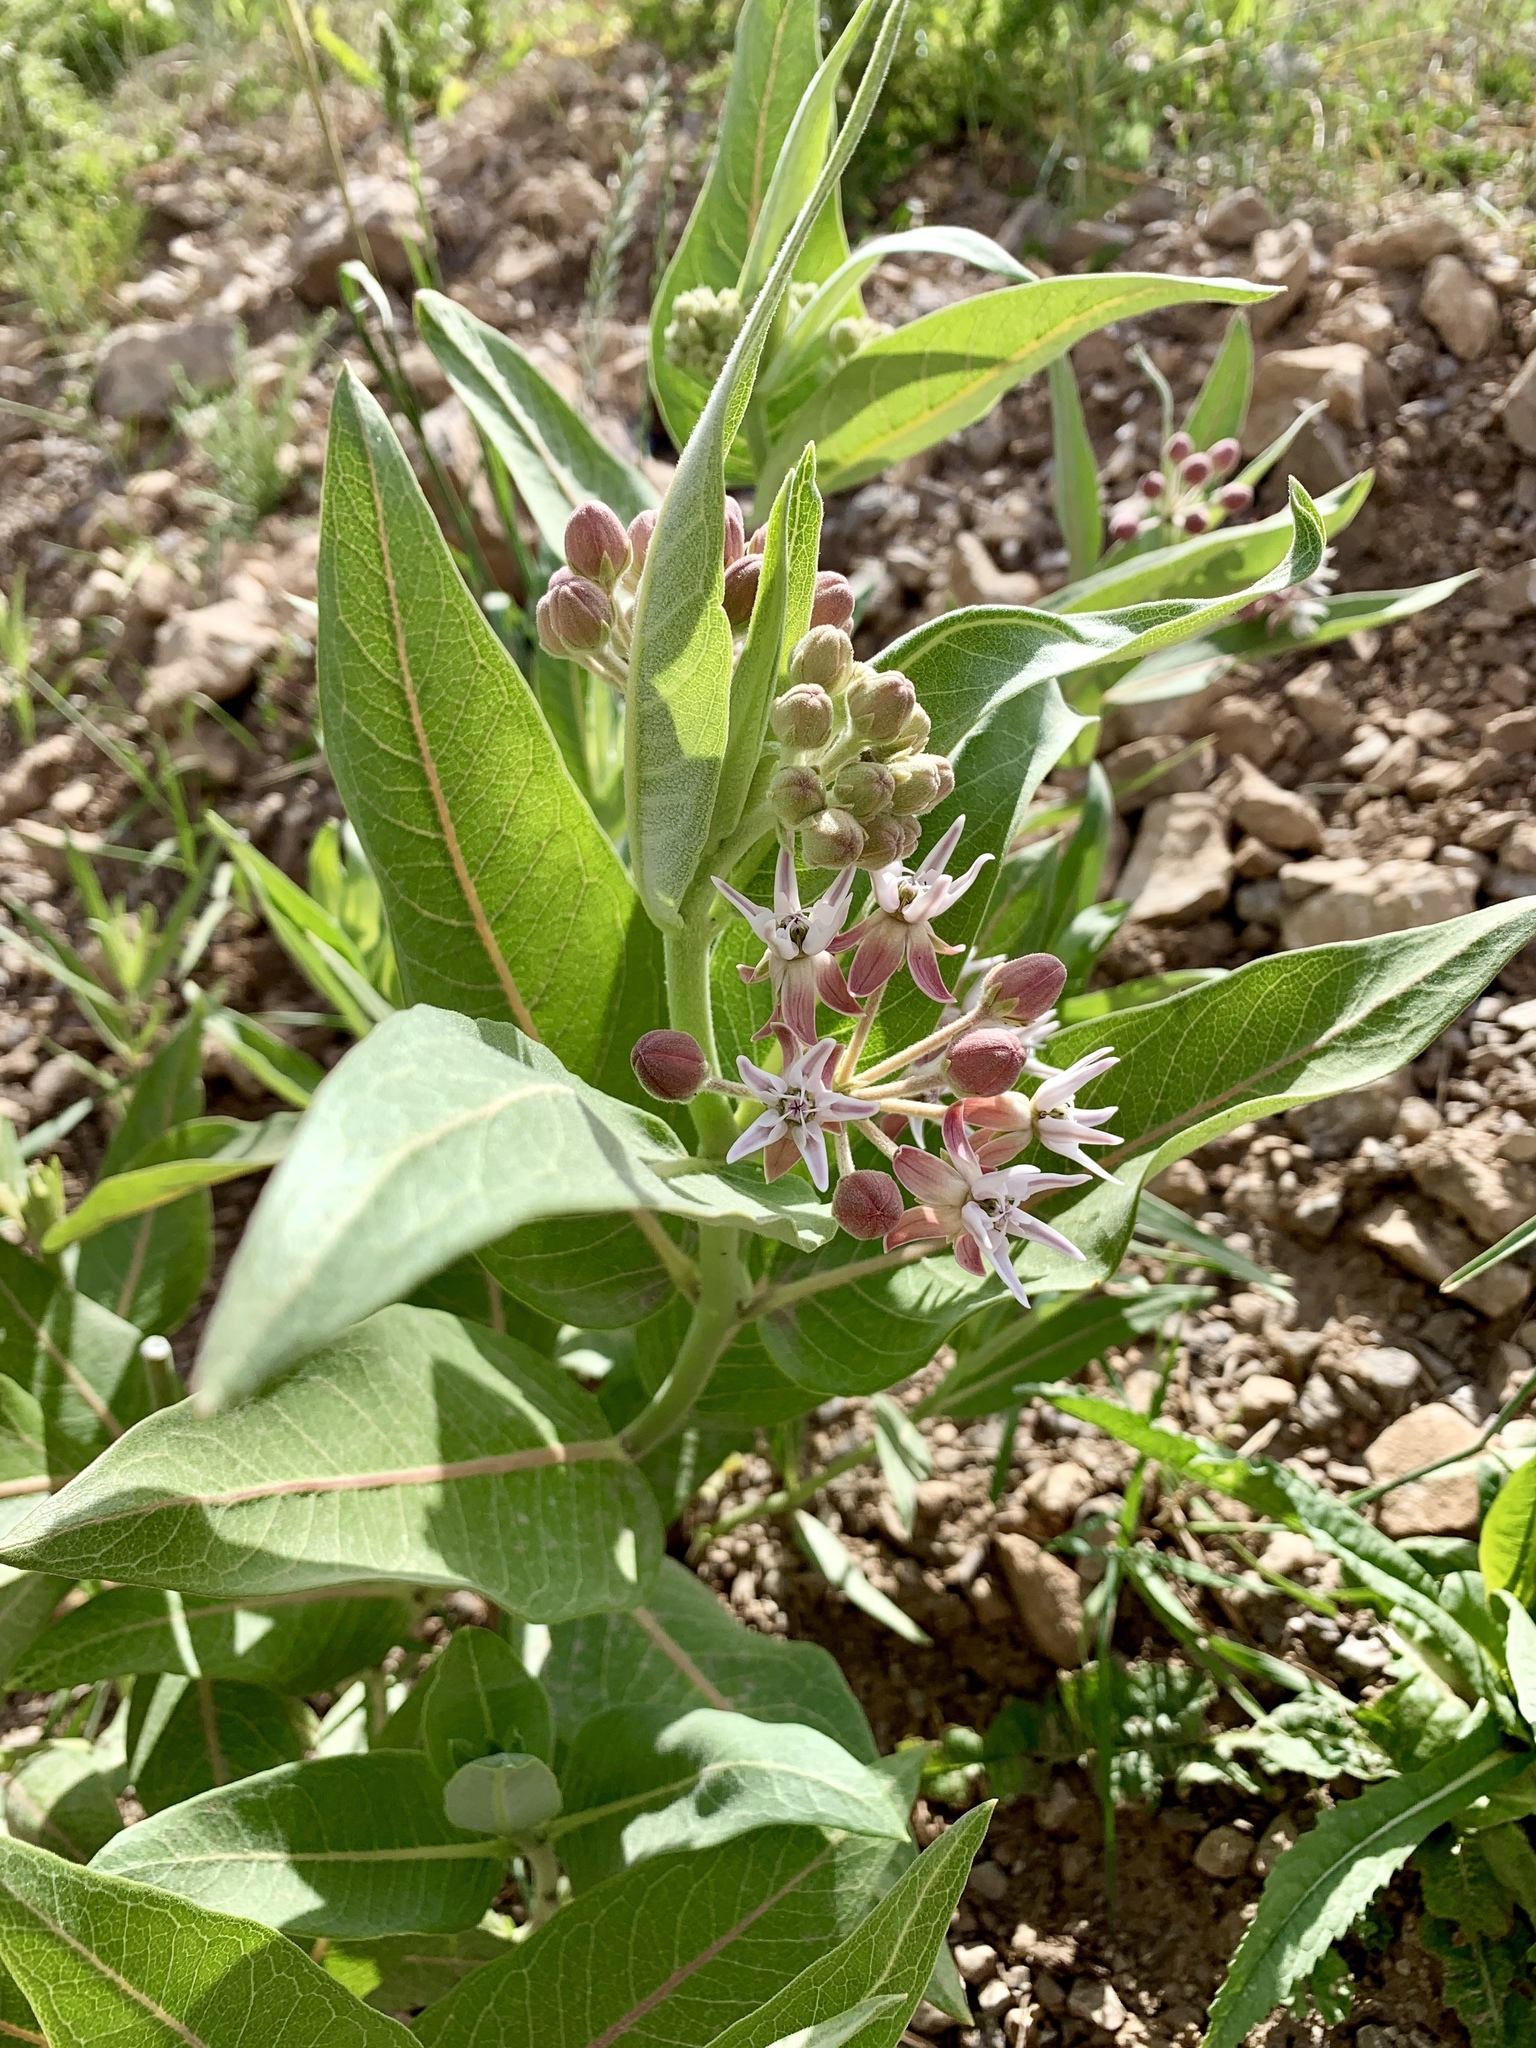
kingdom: Plantae
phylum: Tracheophyta
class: Magnoliopsida
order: Gentianales
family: Apocynaceae
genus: Asclepias
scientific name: Asclepias speciosa
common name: Showy milkweed
